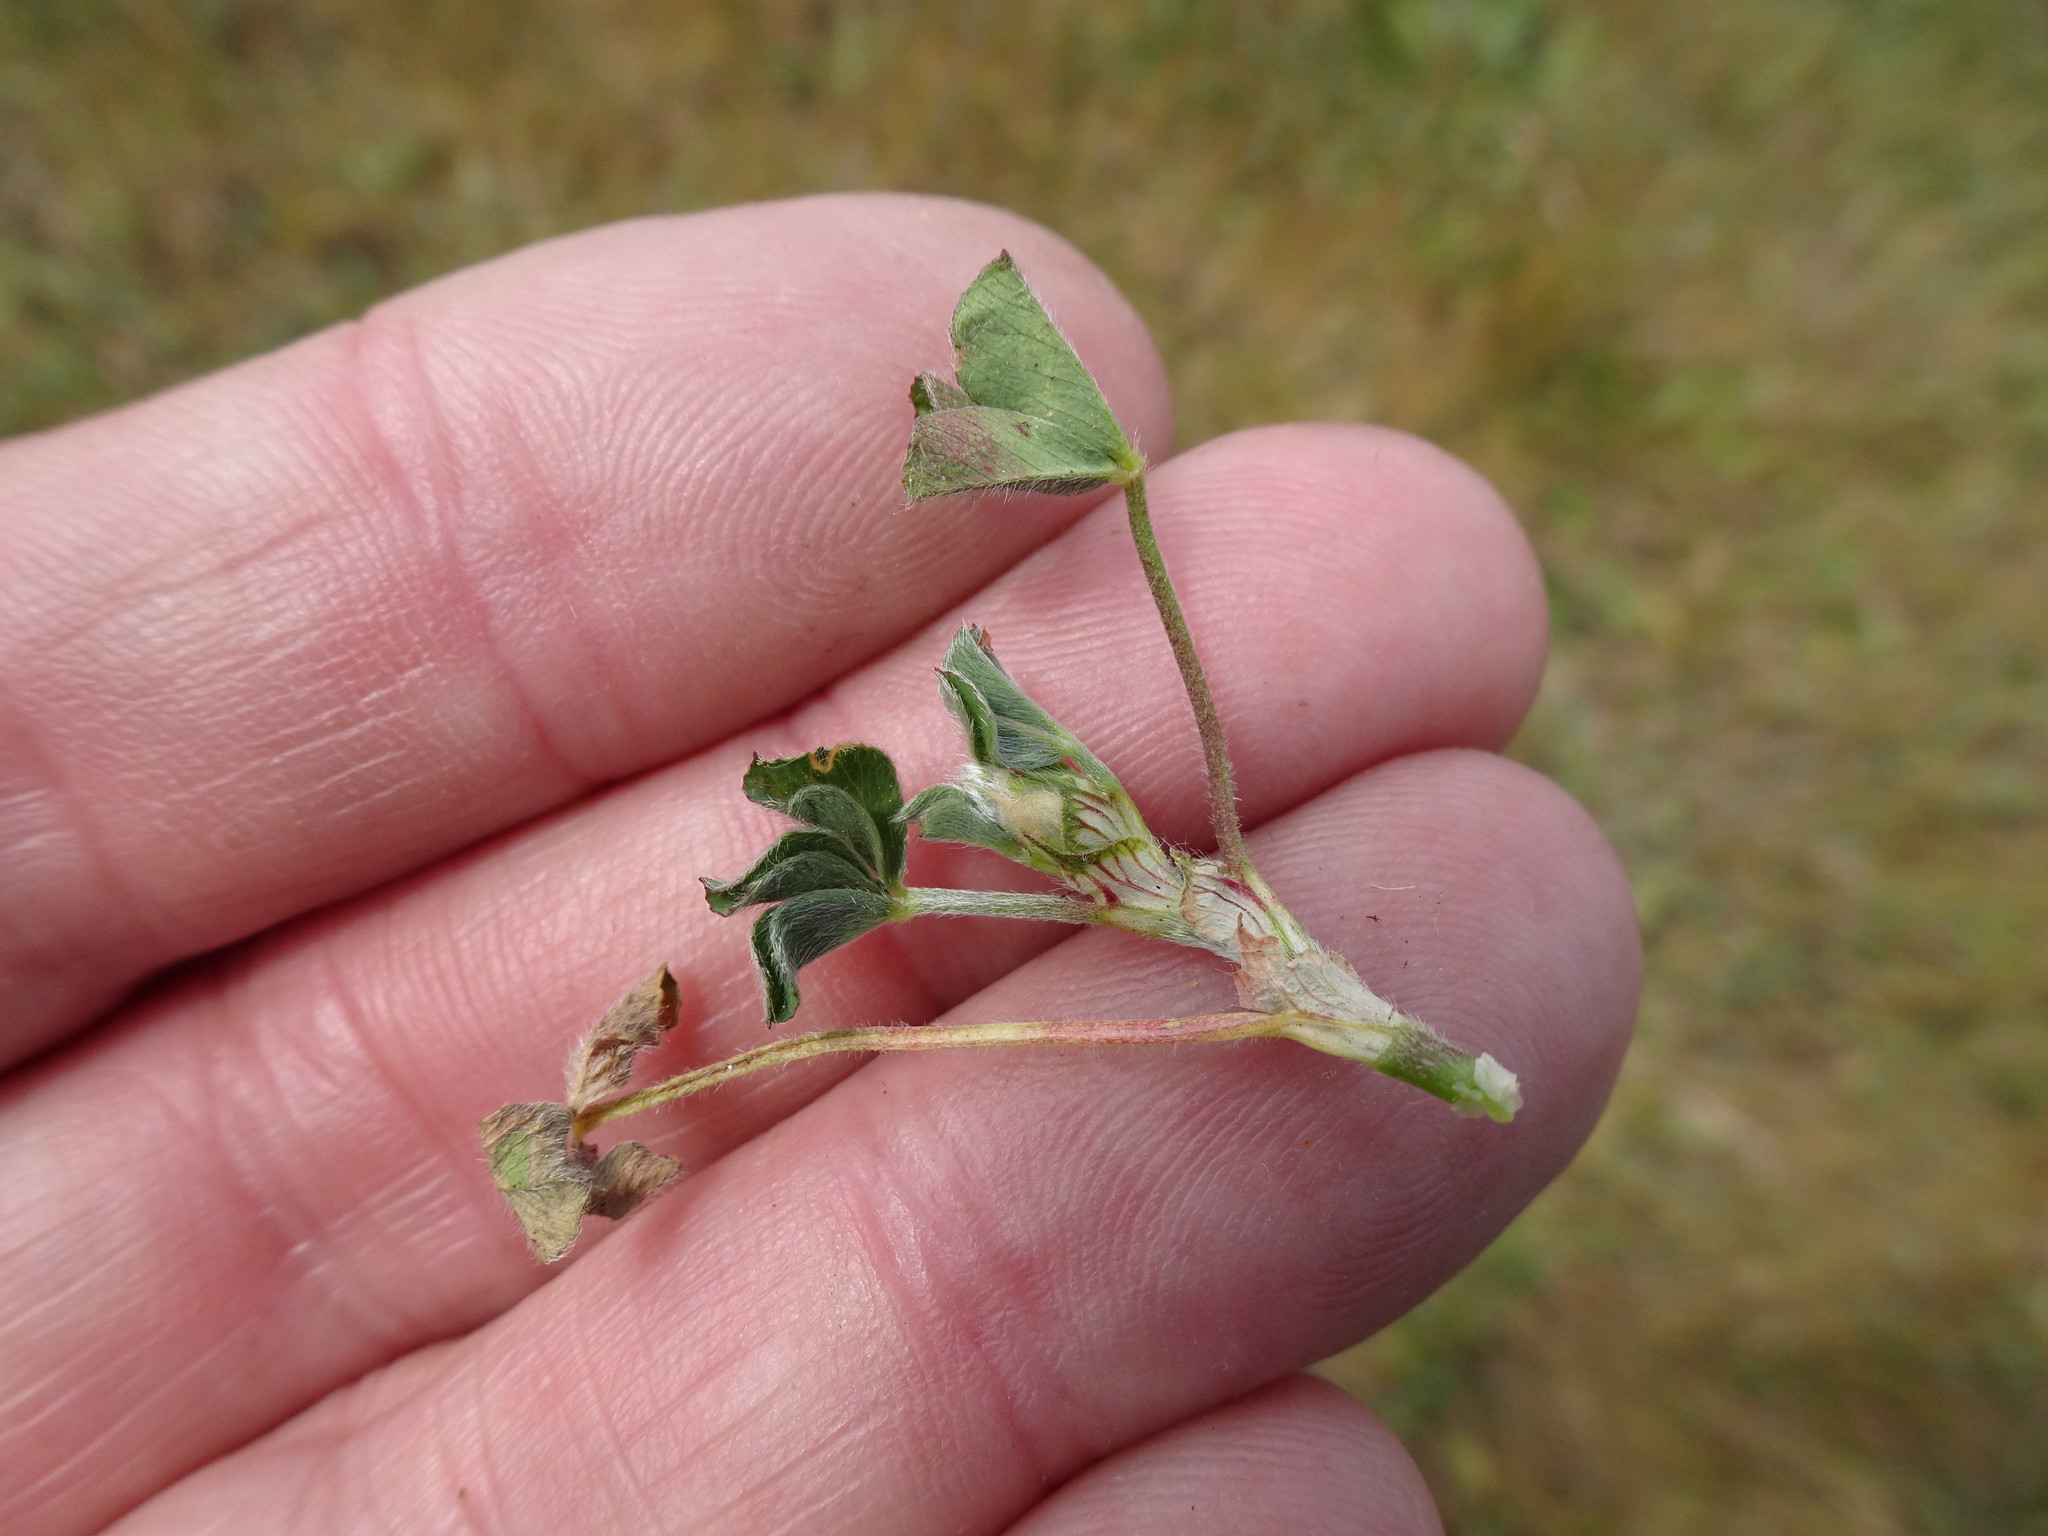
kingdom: Plantae
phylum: Tracheophyta
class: Magnoliopsida
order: Fabales
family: Fabaceae
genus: Trifolium
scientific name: Trifolium striatum
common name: Knotted clover
